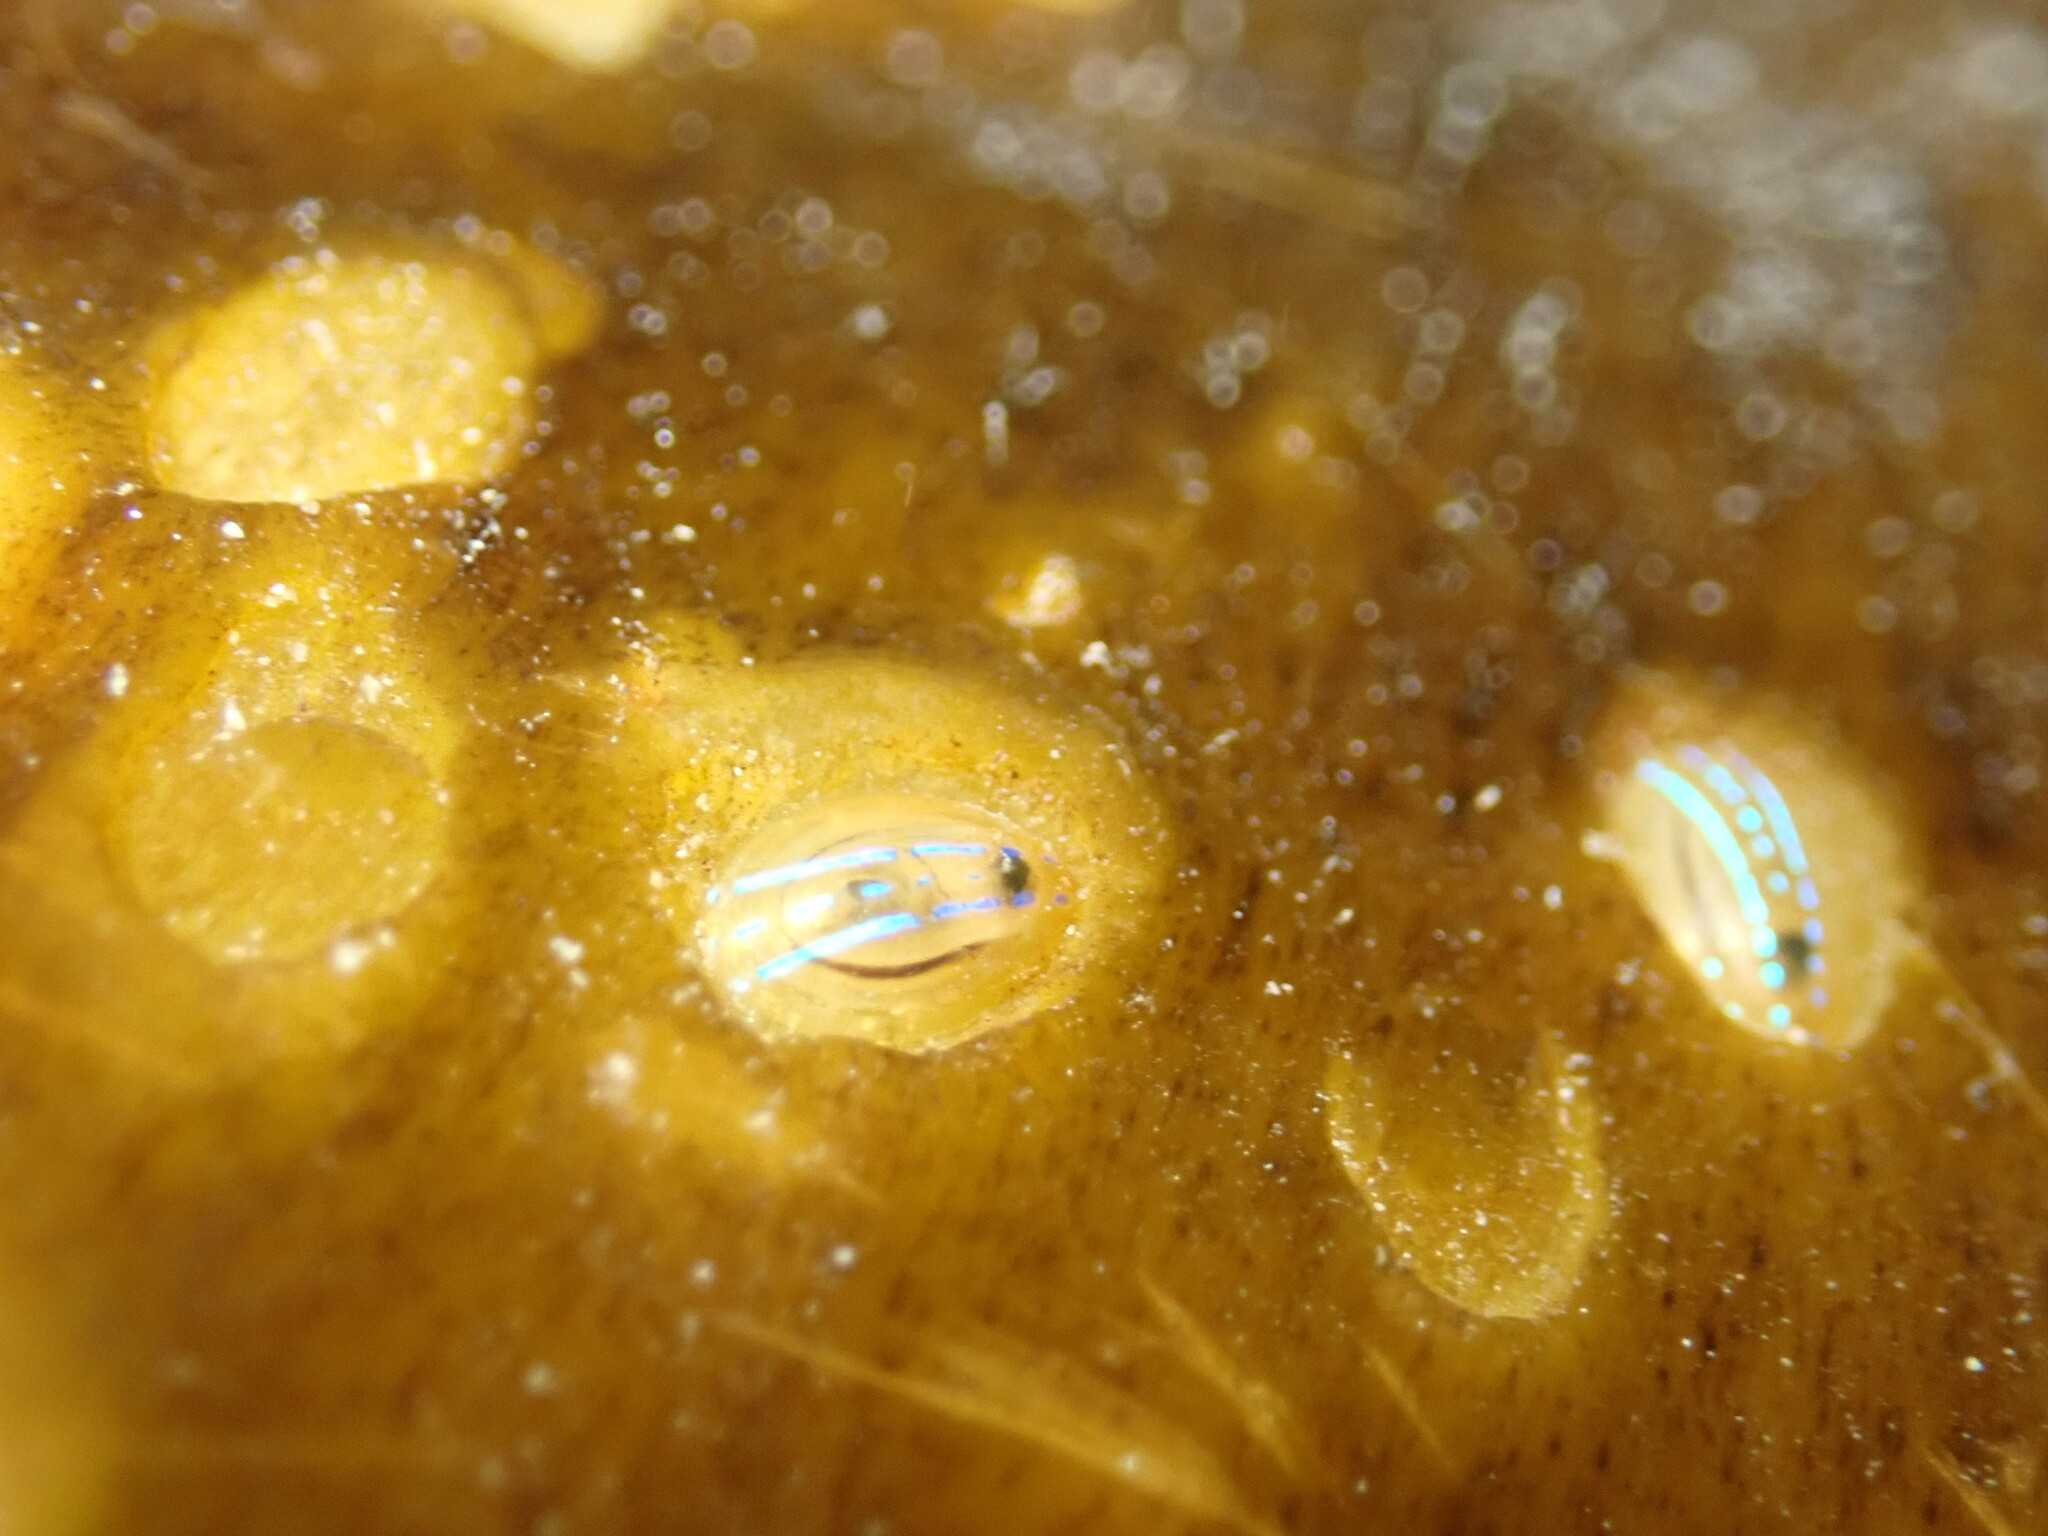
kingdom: Animalia
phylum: Mollusca
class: Gastropoda
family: Patellidae
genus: Patella
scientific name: Patella pellucida
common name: Blue-rayed limpet
